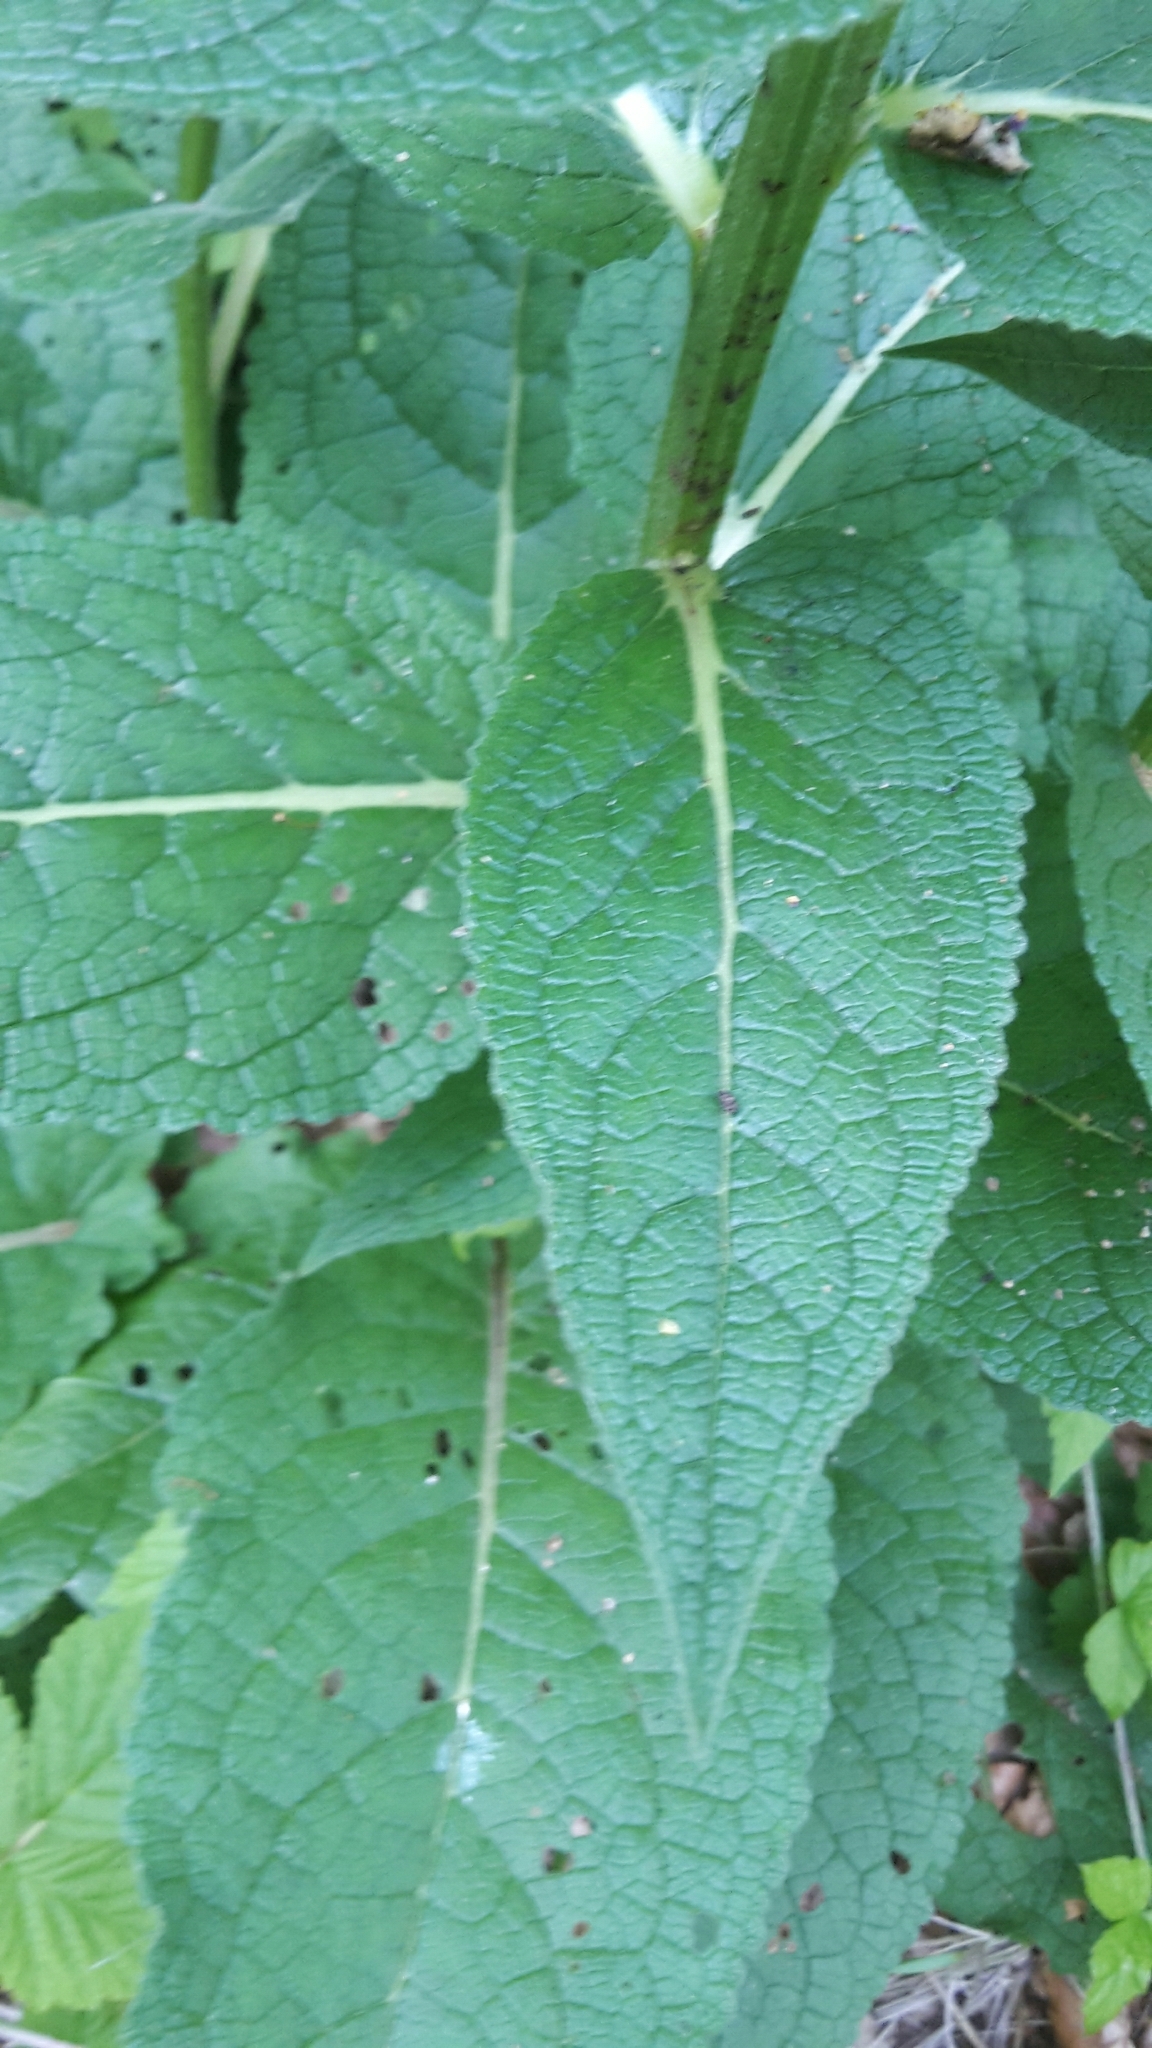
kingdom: Plantae
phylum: Tracheophyta
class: Magnoliopsida
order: Lamiales
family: Scrophulariaceae
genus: Verbascum
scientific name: Verbascum nigrum
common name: Dark mullein
